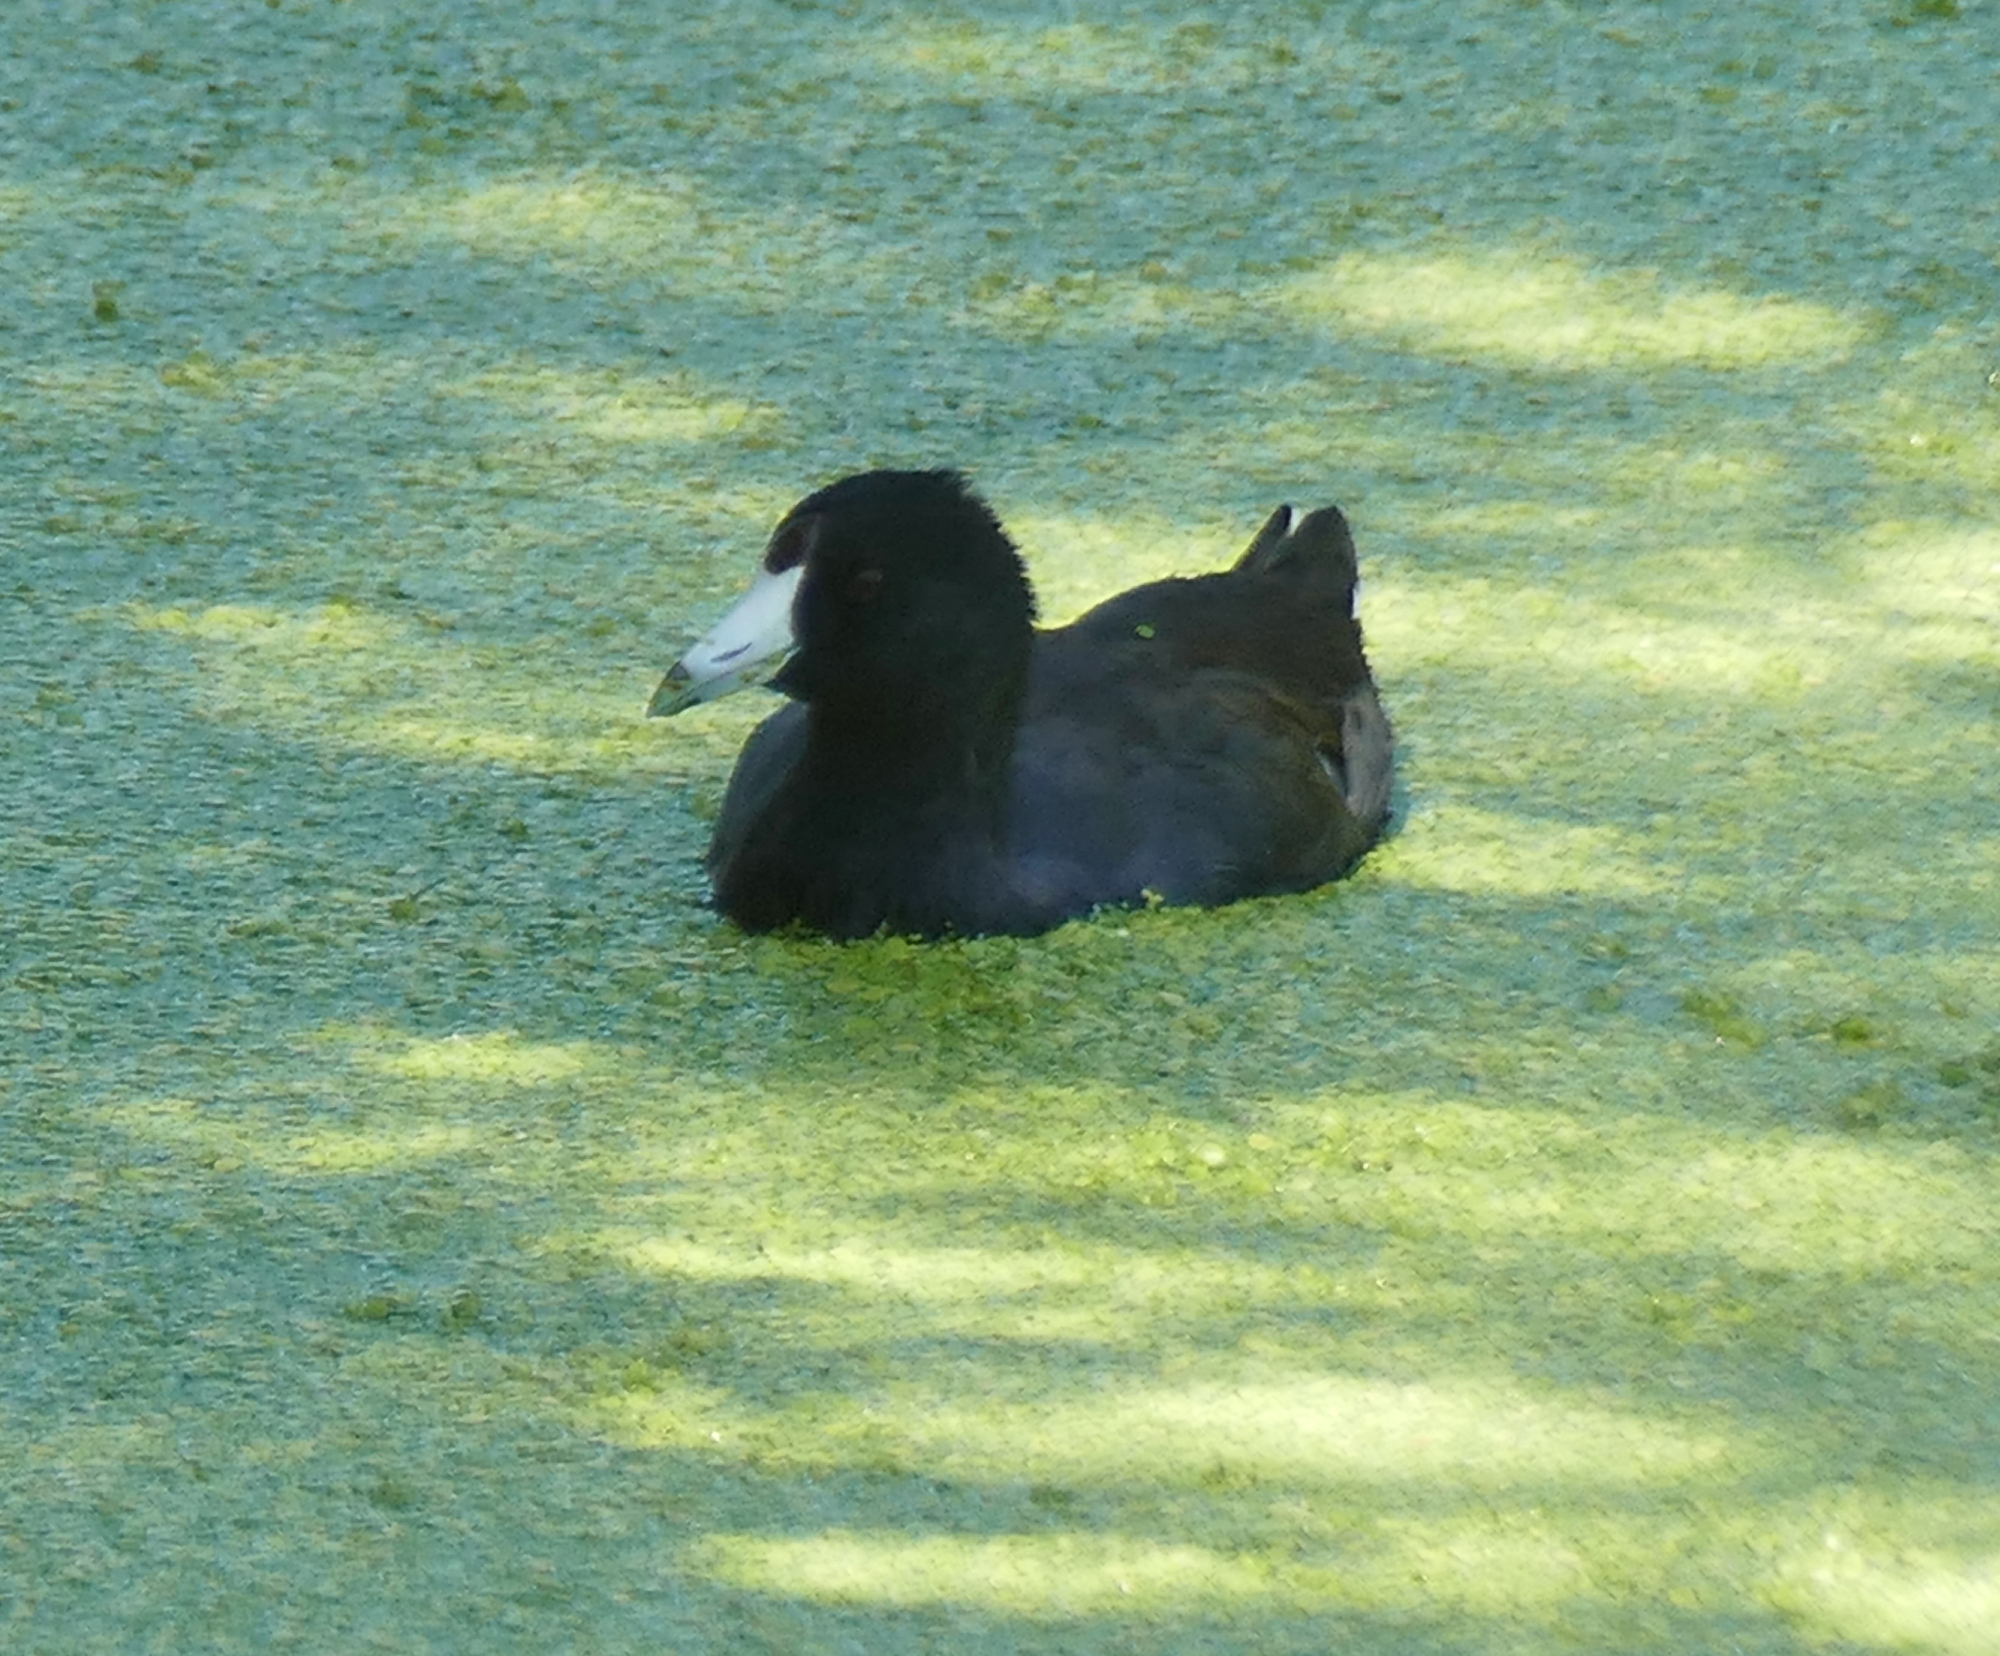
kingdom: Animalia
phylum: Chordata
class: Aves
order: Gruiformes
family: Rallidae
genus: Fulica
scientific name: Fulica americana
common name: American coot
